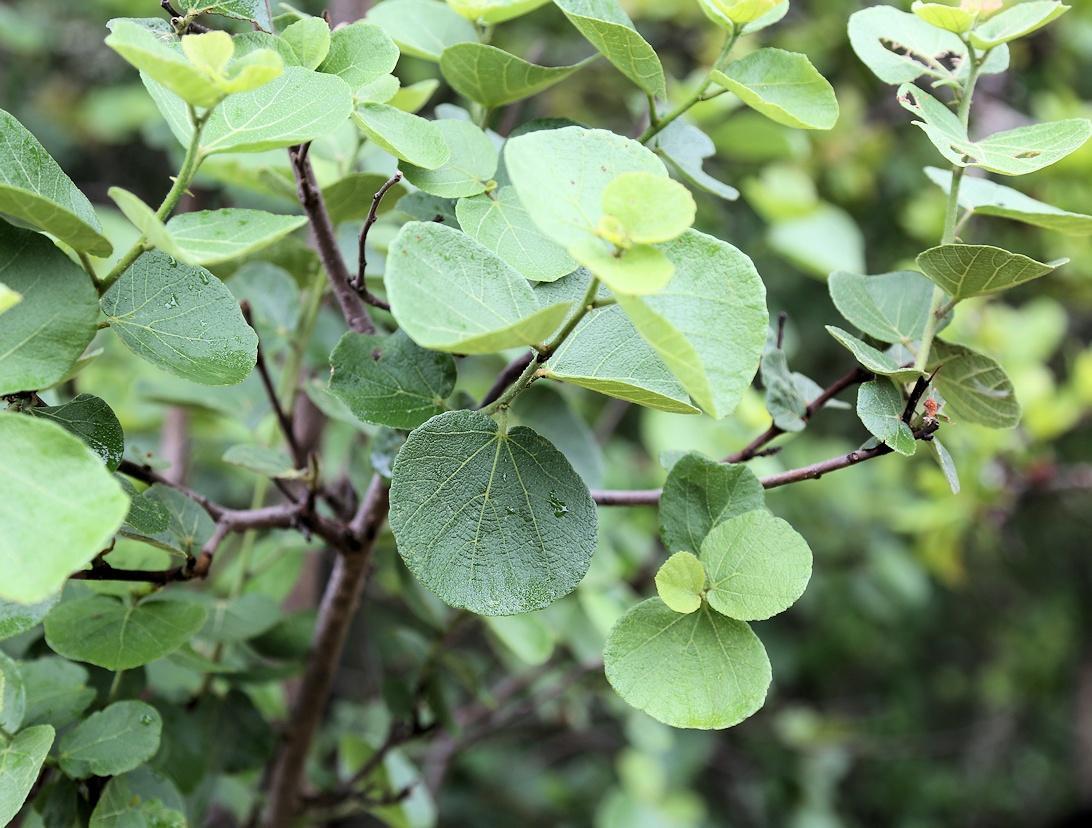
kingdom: Plantae
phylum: Tracheophyta
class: Magnoliopsida
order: Malvales
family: Malvaceae
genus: Dombeya
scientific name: Dombeya rotundifolia
